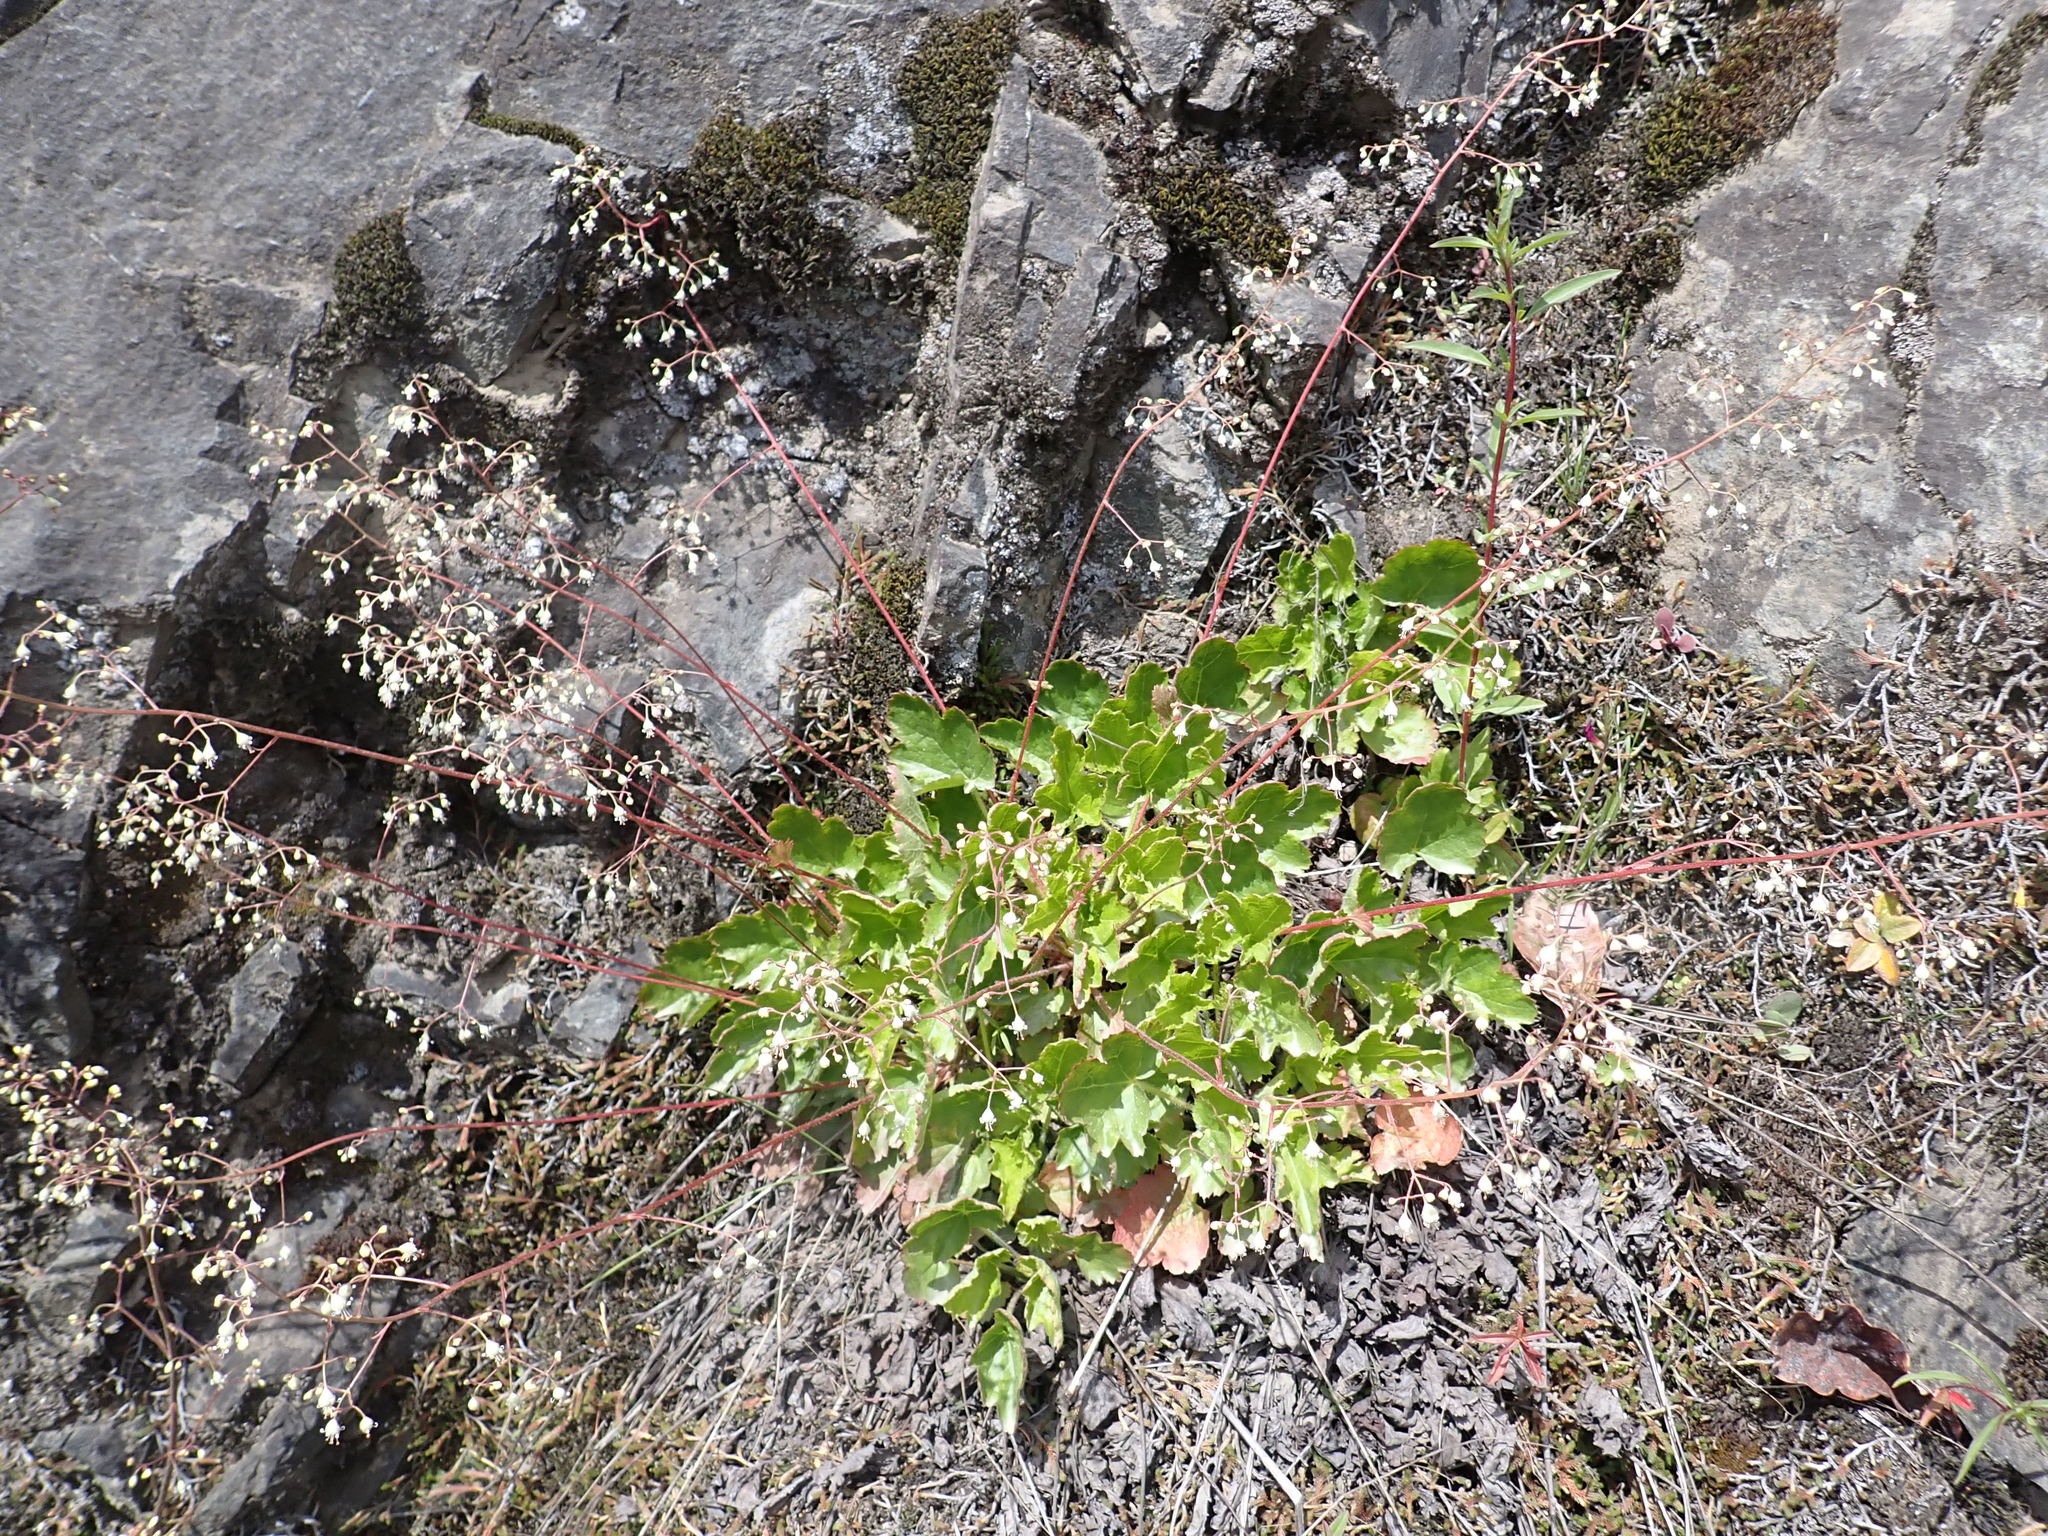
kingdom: Plantae
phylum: Tracheophyta
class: Magnoliopsida
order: Saxifragales
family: Saxifragaceae
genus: Heuchera
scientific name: Heuchera micrantha
